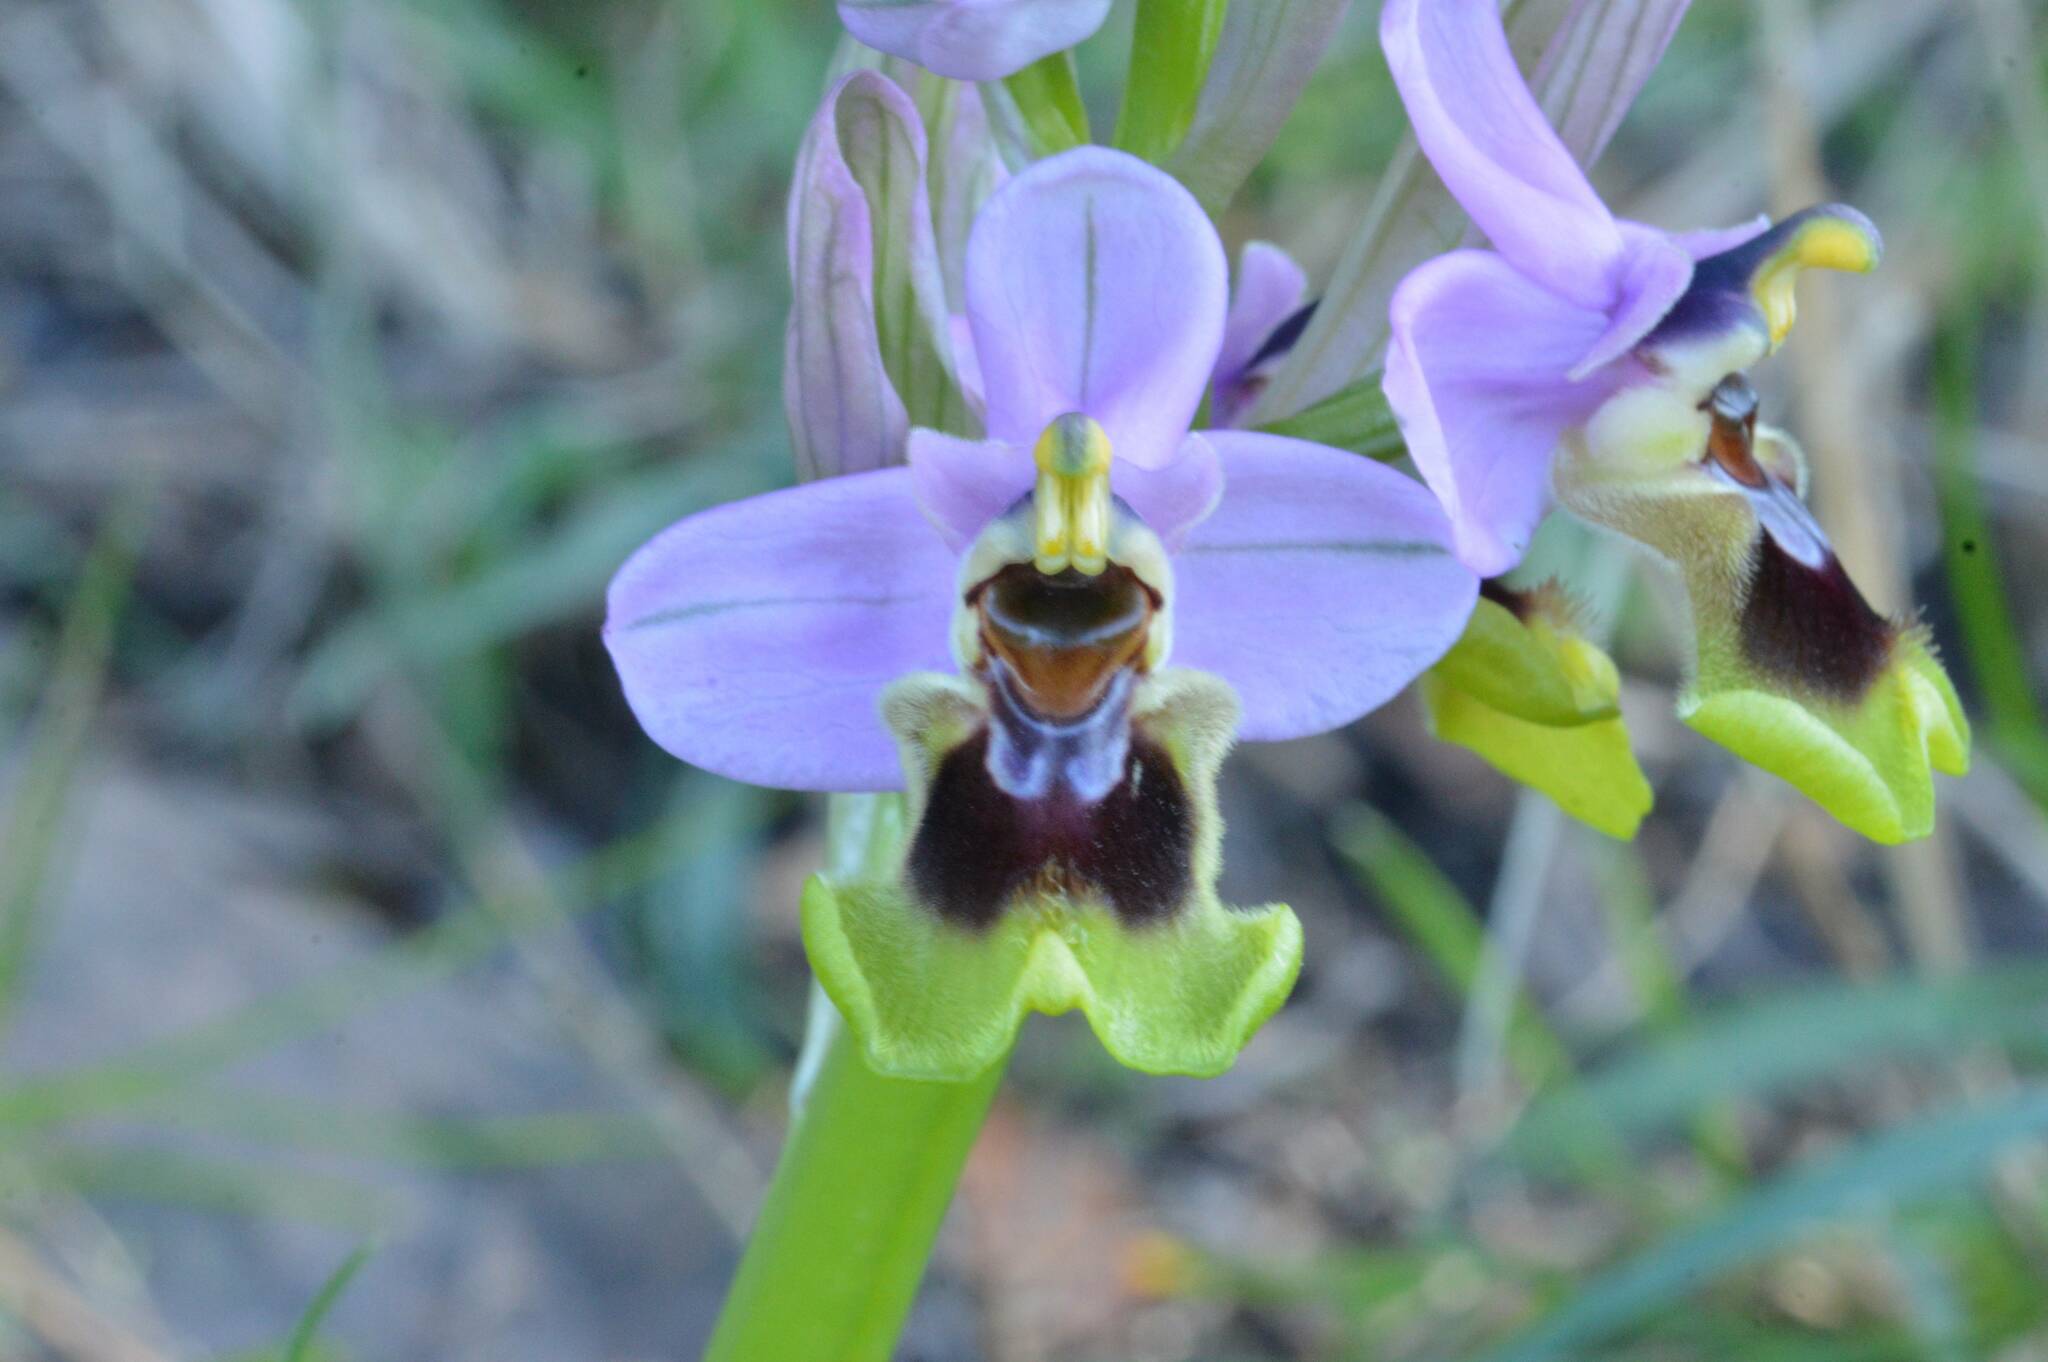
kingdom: Plantae
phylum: Tracheophyta
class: Liliopsida
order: Asparagales
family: Orchidaceae
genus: Ophrys
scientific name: Ophrys tenthredinifera
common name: Sawfly orchid
